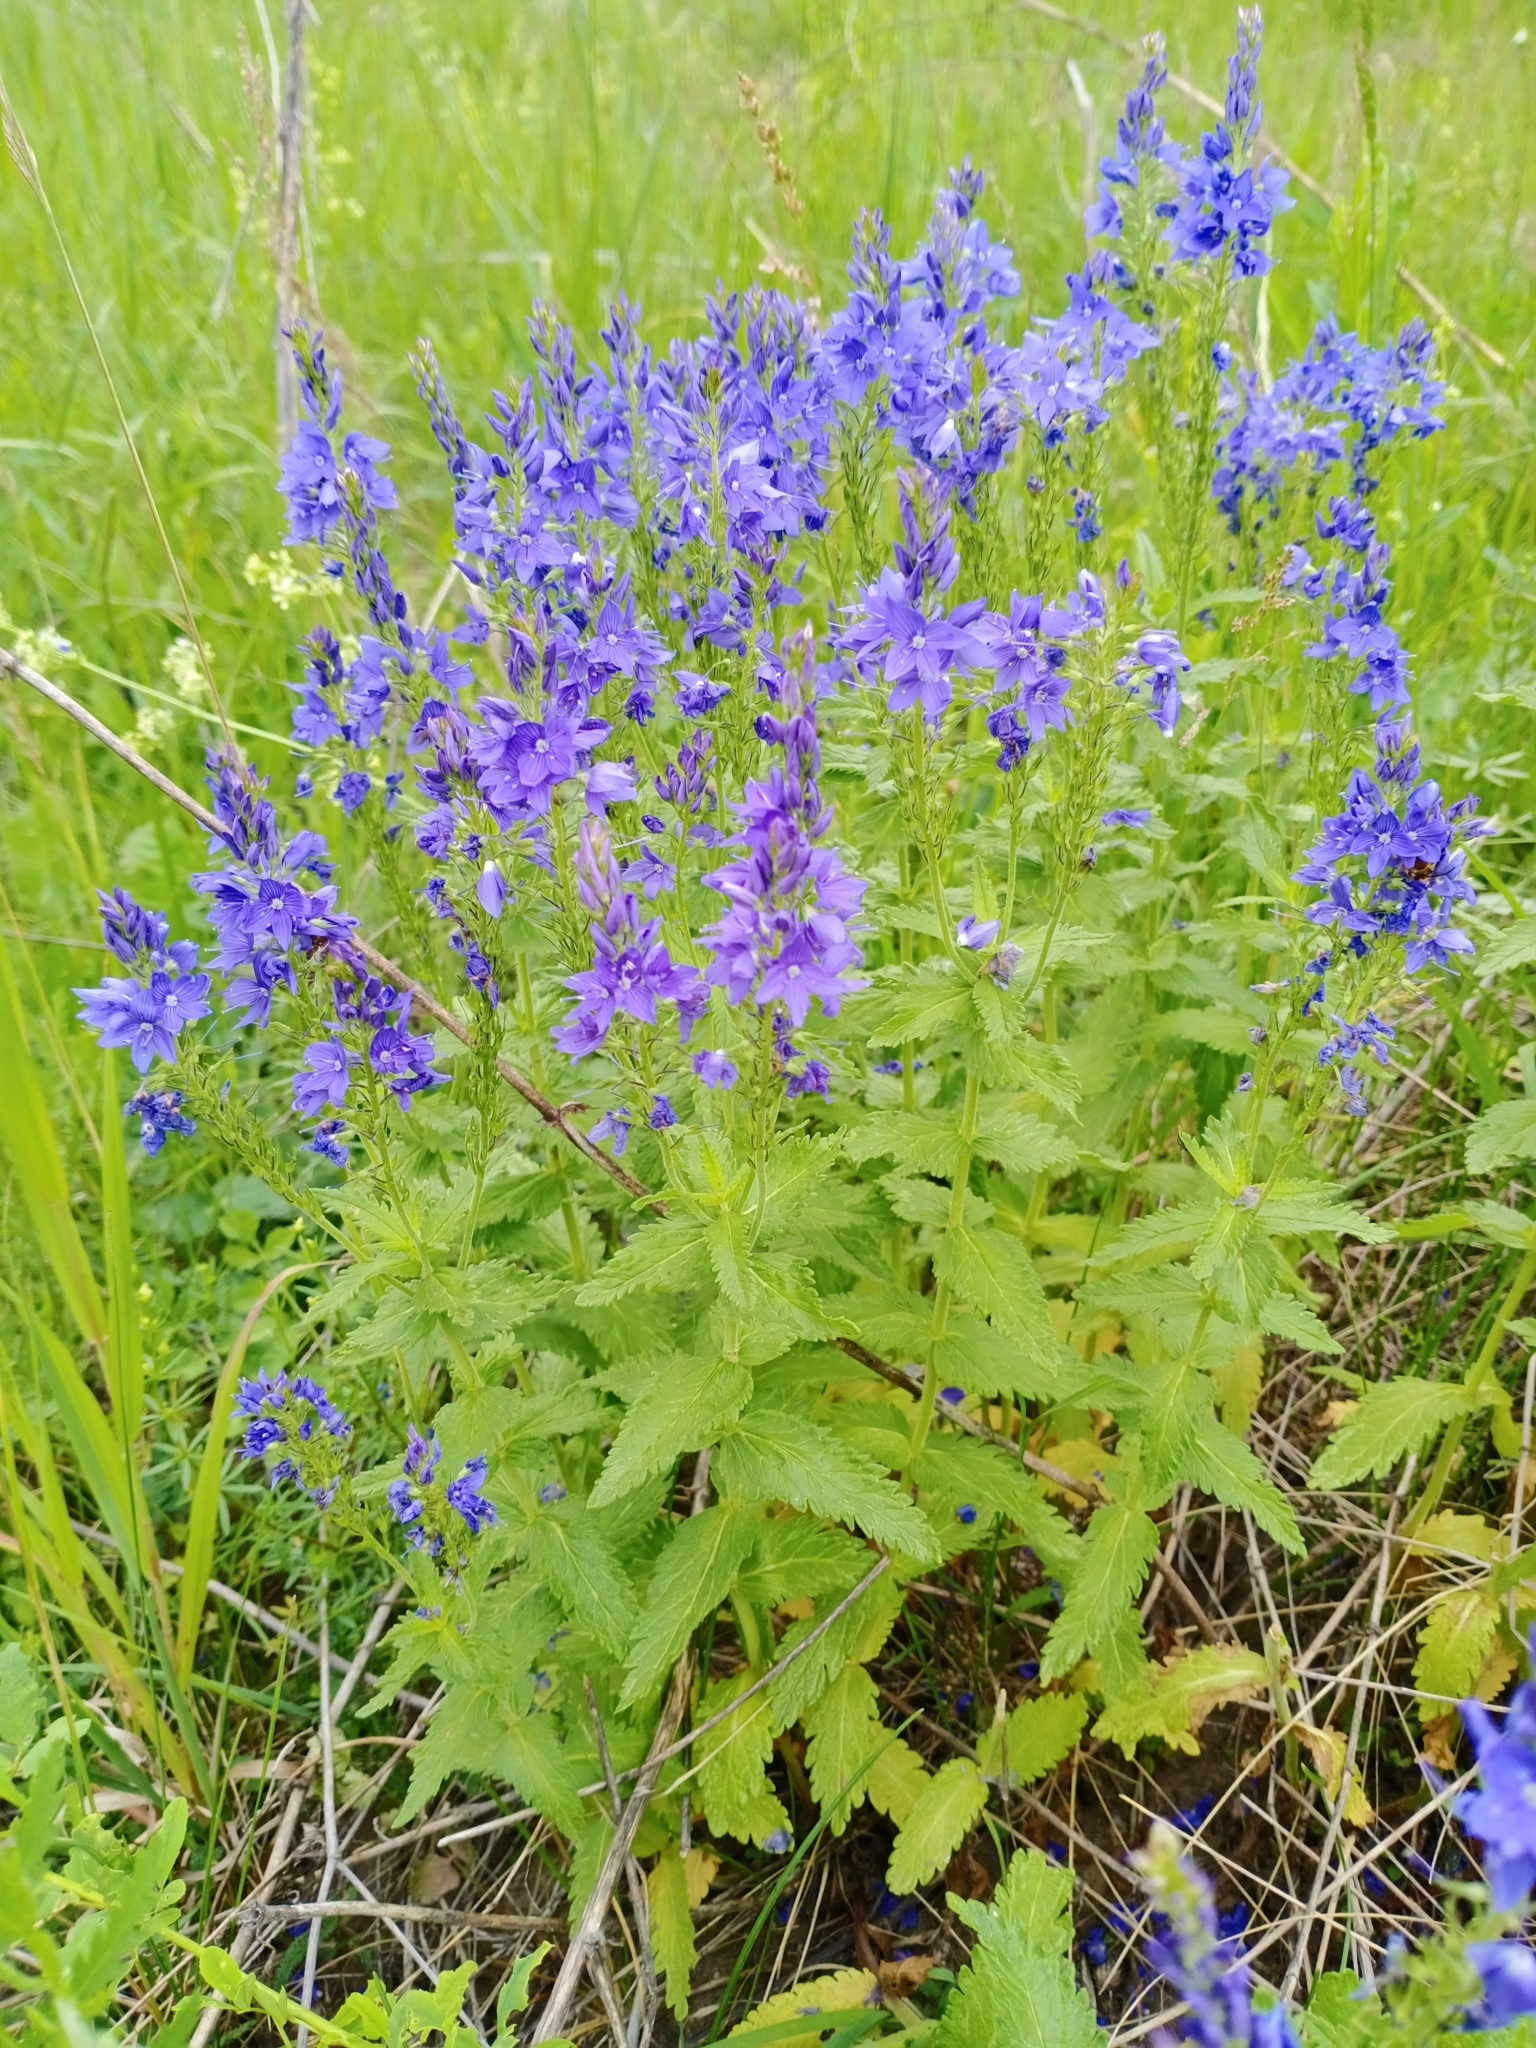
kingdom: Plantae
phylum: Tracheophyta
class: Magnoliopsida
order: Lamiales
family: Plantaginaceae
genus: Veronica
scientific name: Veronica teucrium
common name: Large speedwell
